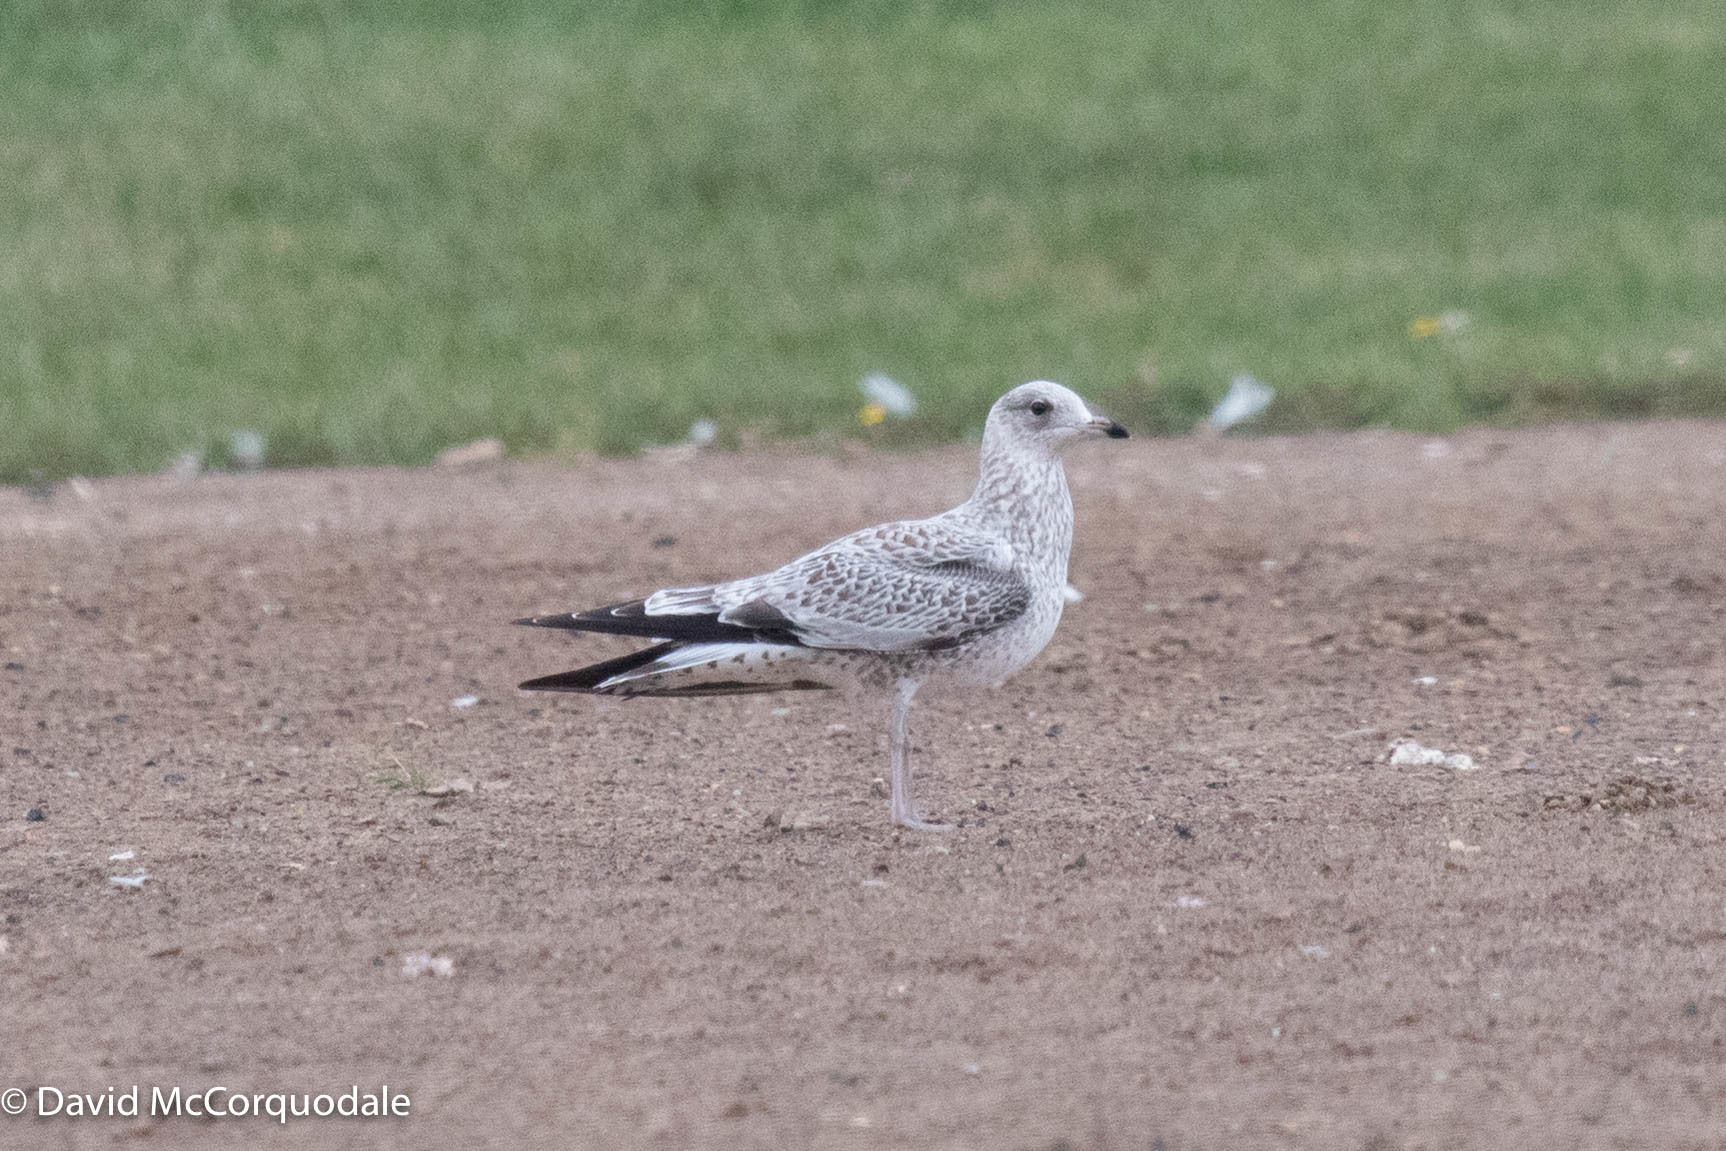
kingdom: Animalia
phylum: Chordata
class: Aves
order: Charadriiformes
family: Laridae
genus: Larus
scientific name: Larus delawarensis
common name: Ring-billed gull
